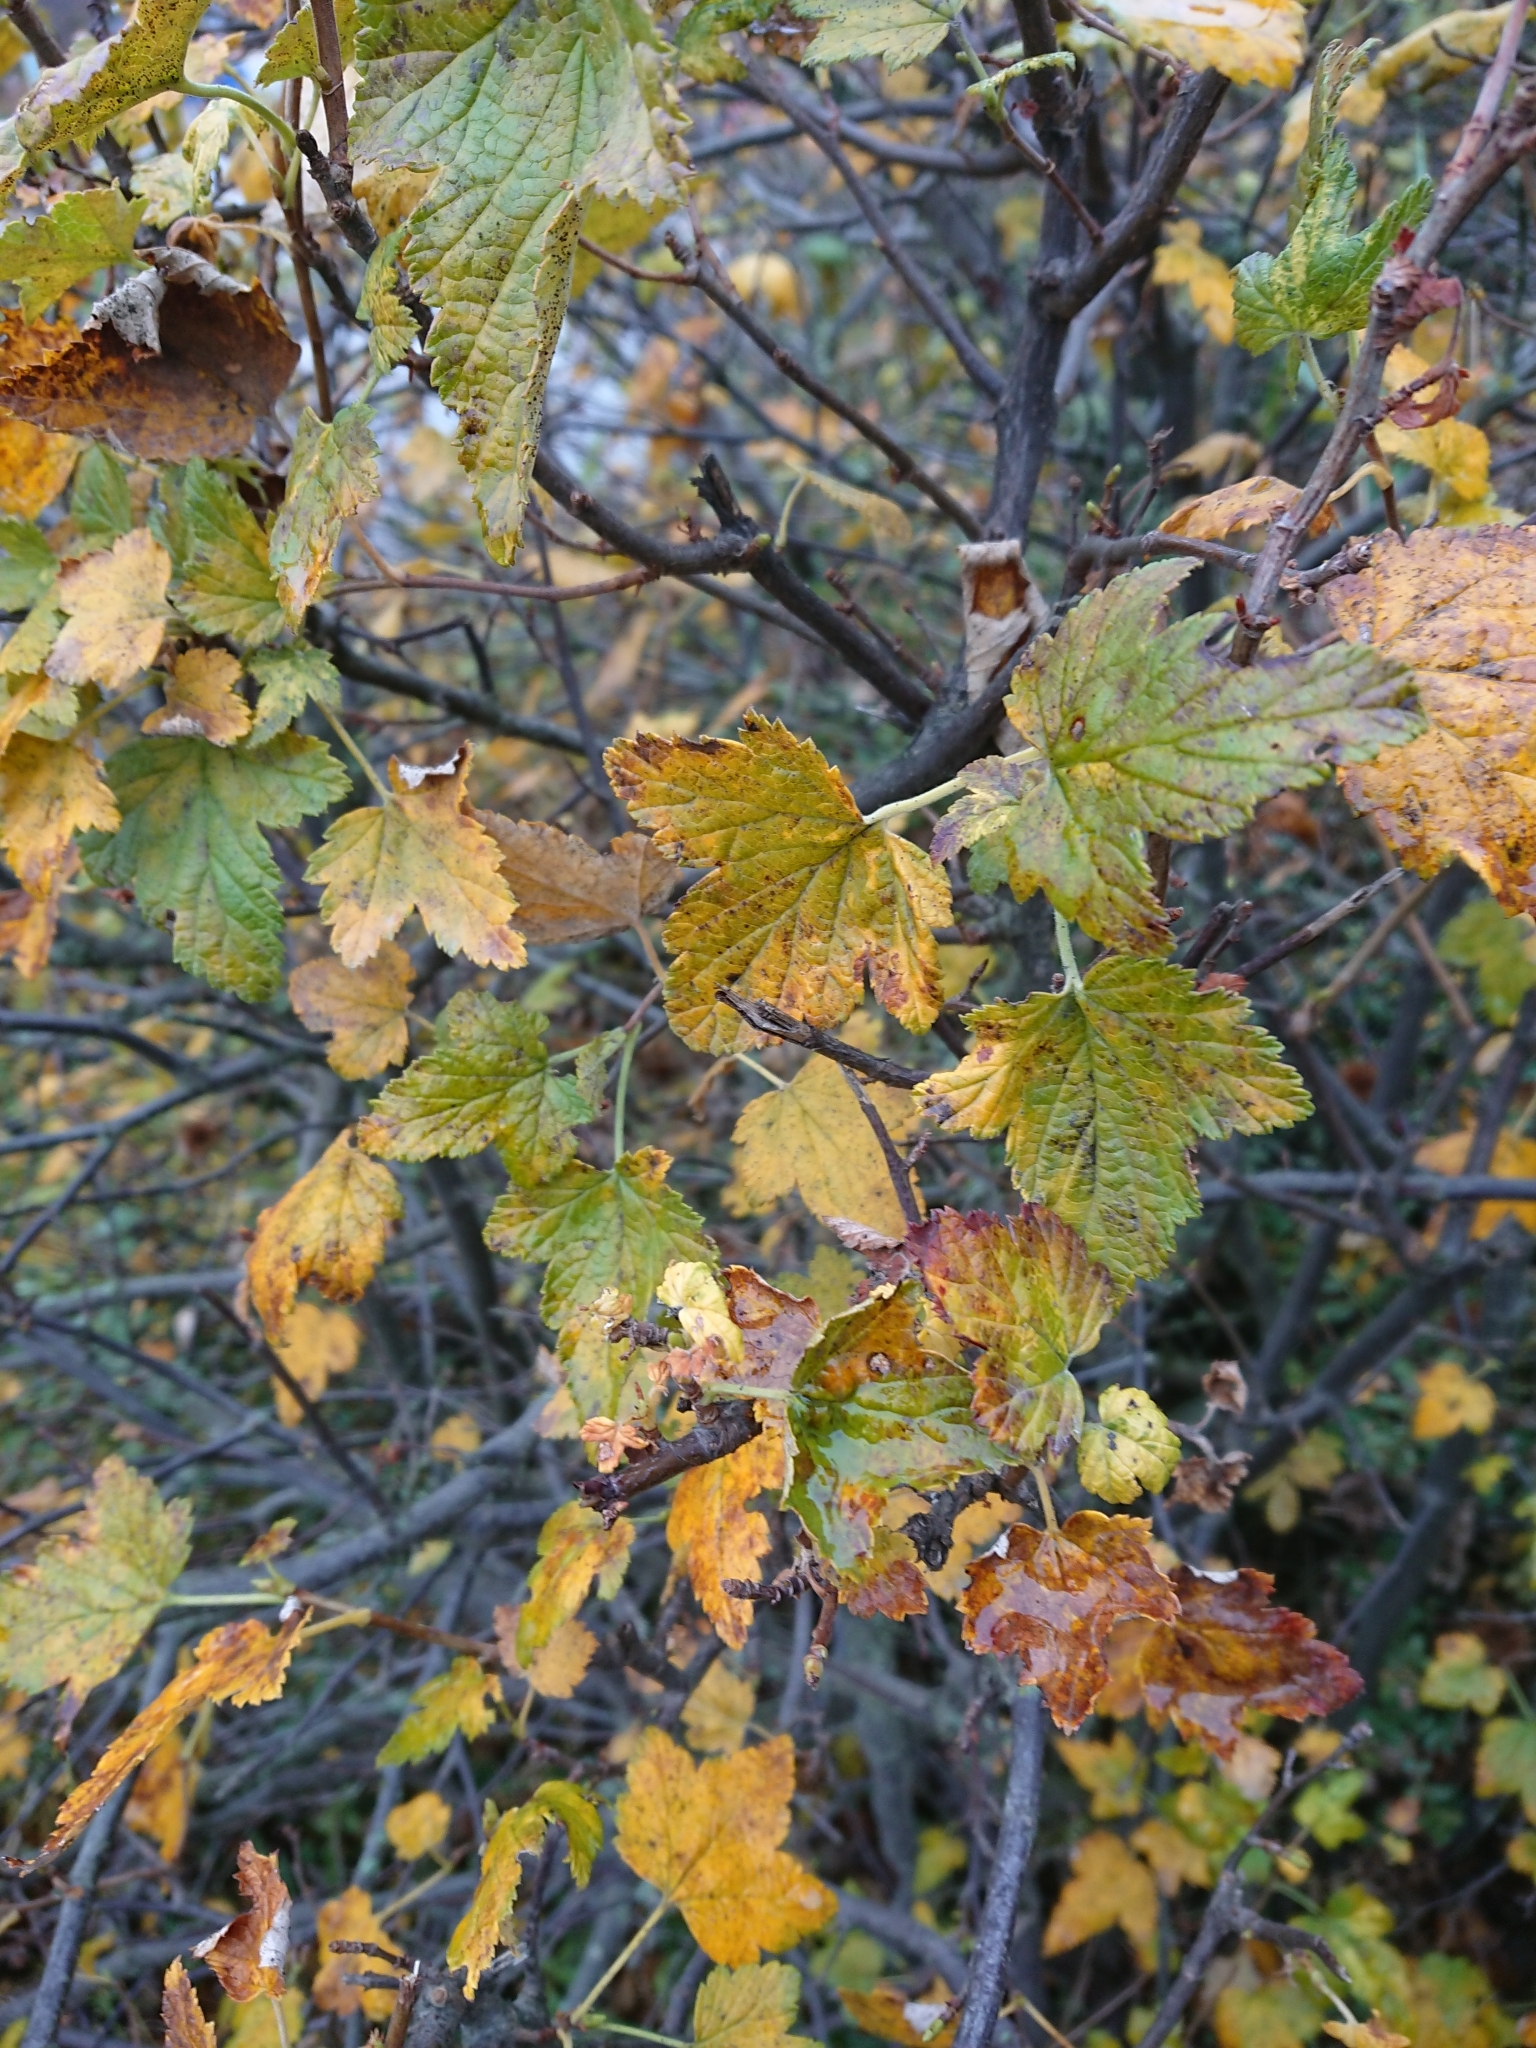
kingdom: Plantae
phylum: Tracheophyta
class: Magnoliopsida
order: Saxifragales
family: Grossulariaceae
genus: Ribes
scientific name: Ribes magellanicum
